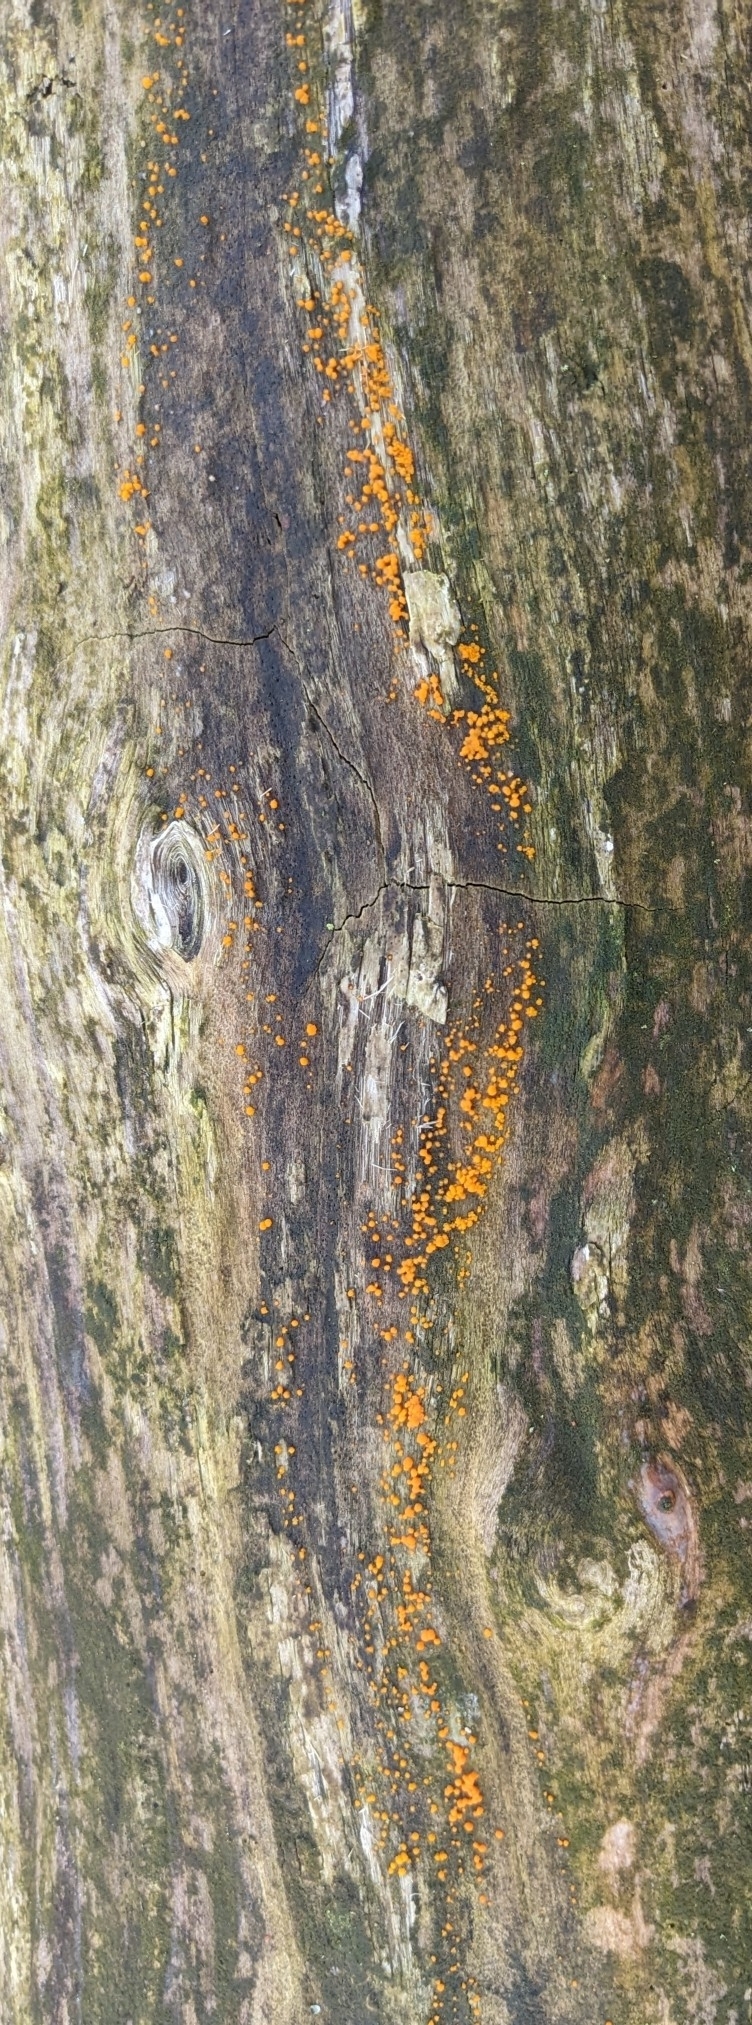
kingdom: Fungi
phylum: Basidiomycota
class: Dacrymycetes
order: Dacrymycetales
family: Dacrymycetaceae
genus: Dacrymyces
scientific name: Dacrymyces stillatus
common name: Common jelly spot
